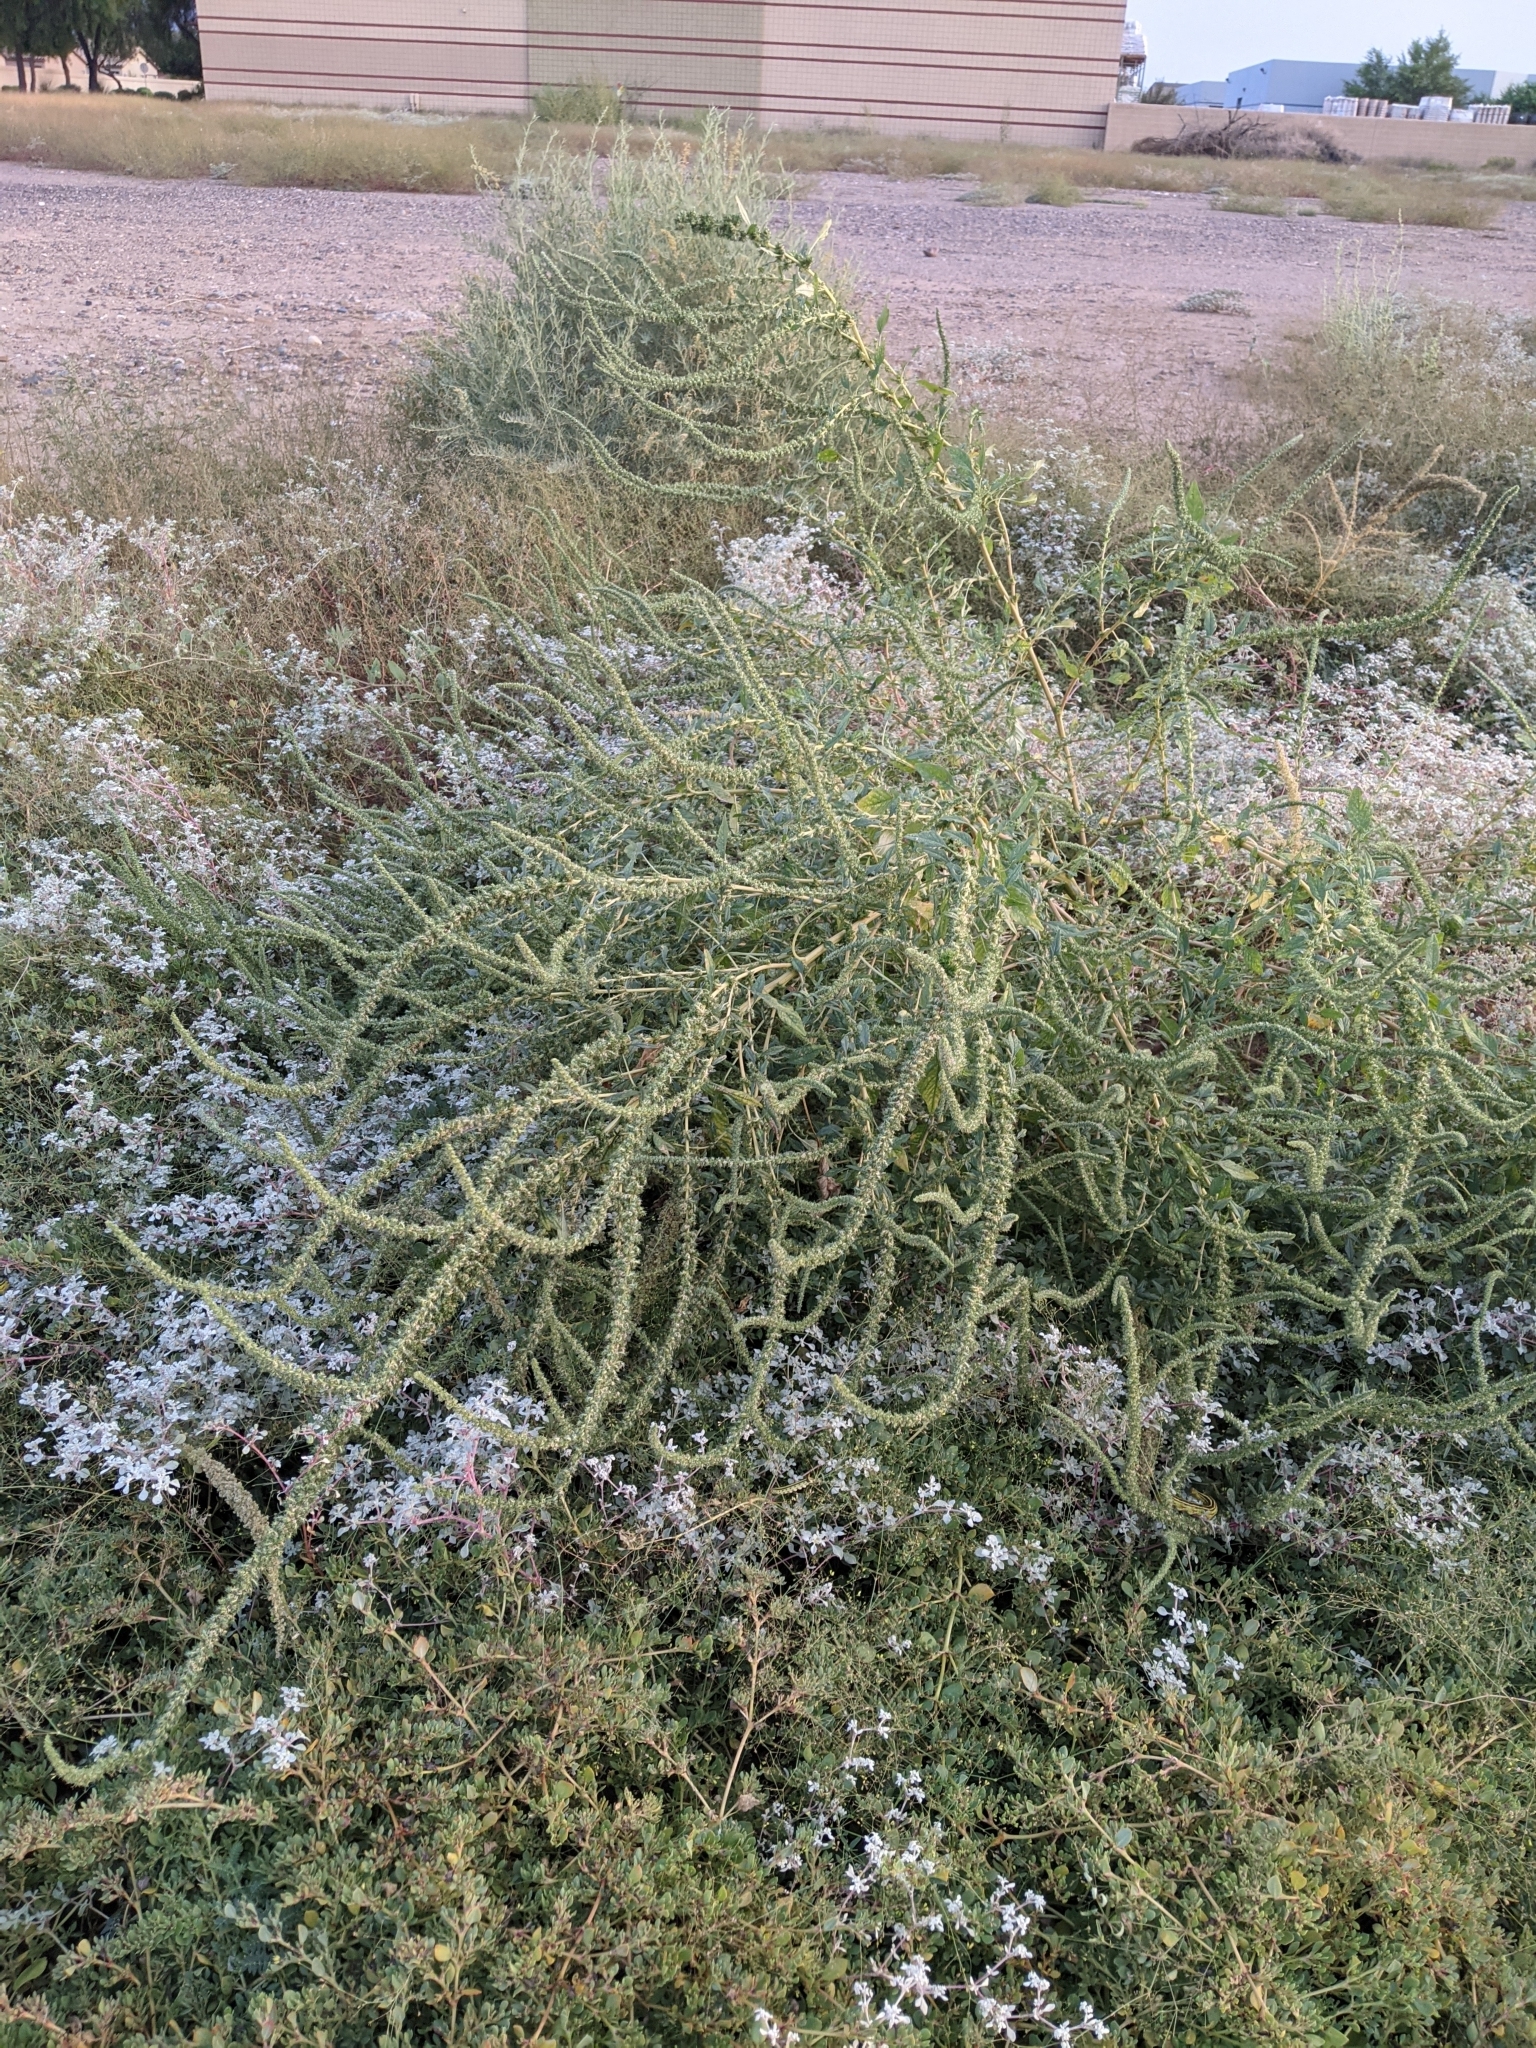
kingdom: Plantae
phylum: Tracheophyta
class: Magnoliopsida
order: Caryophyllales
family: Amaranthaceae
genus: Amaranthus
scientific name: Amaranthus palmeri
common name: Dioecious amaranth
